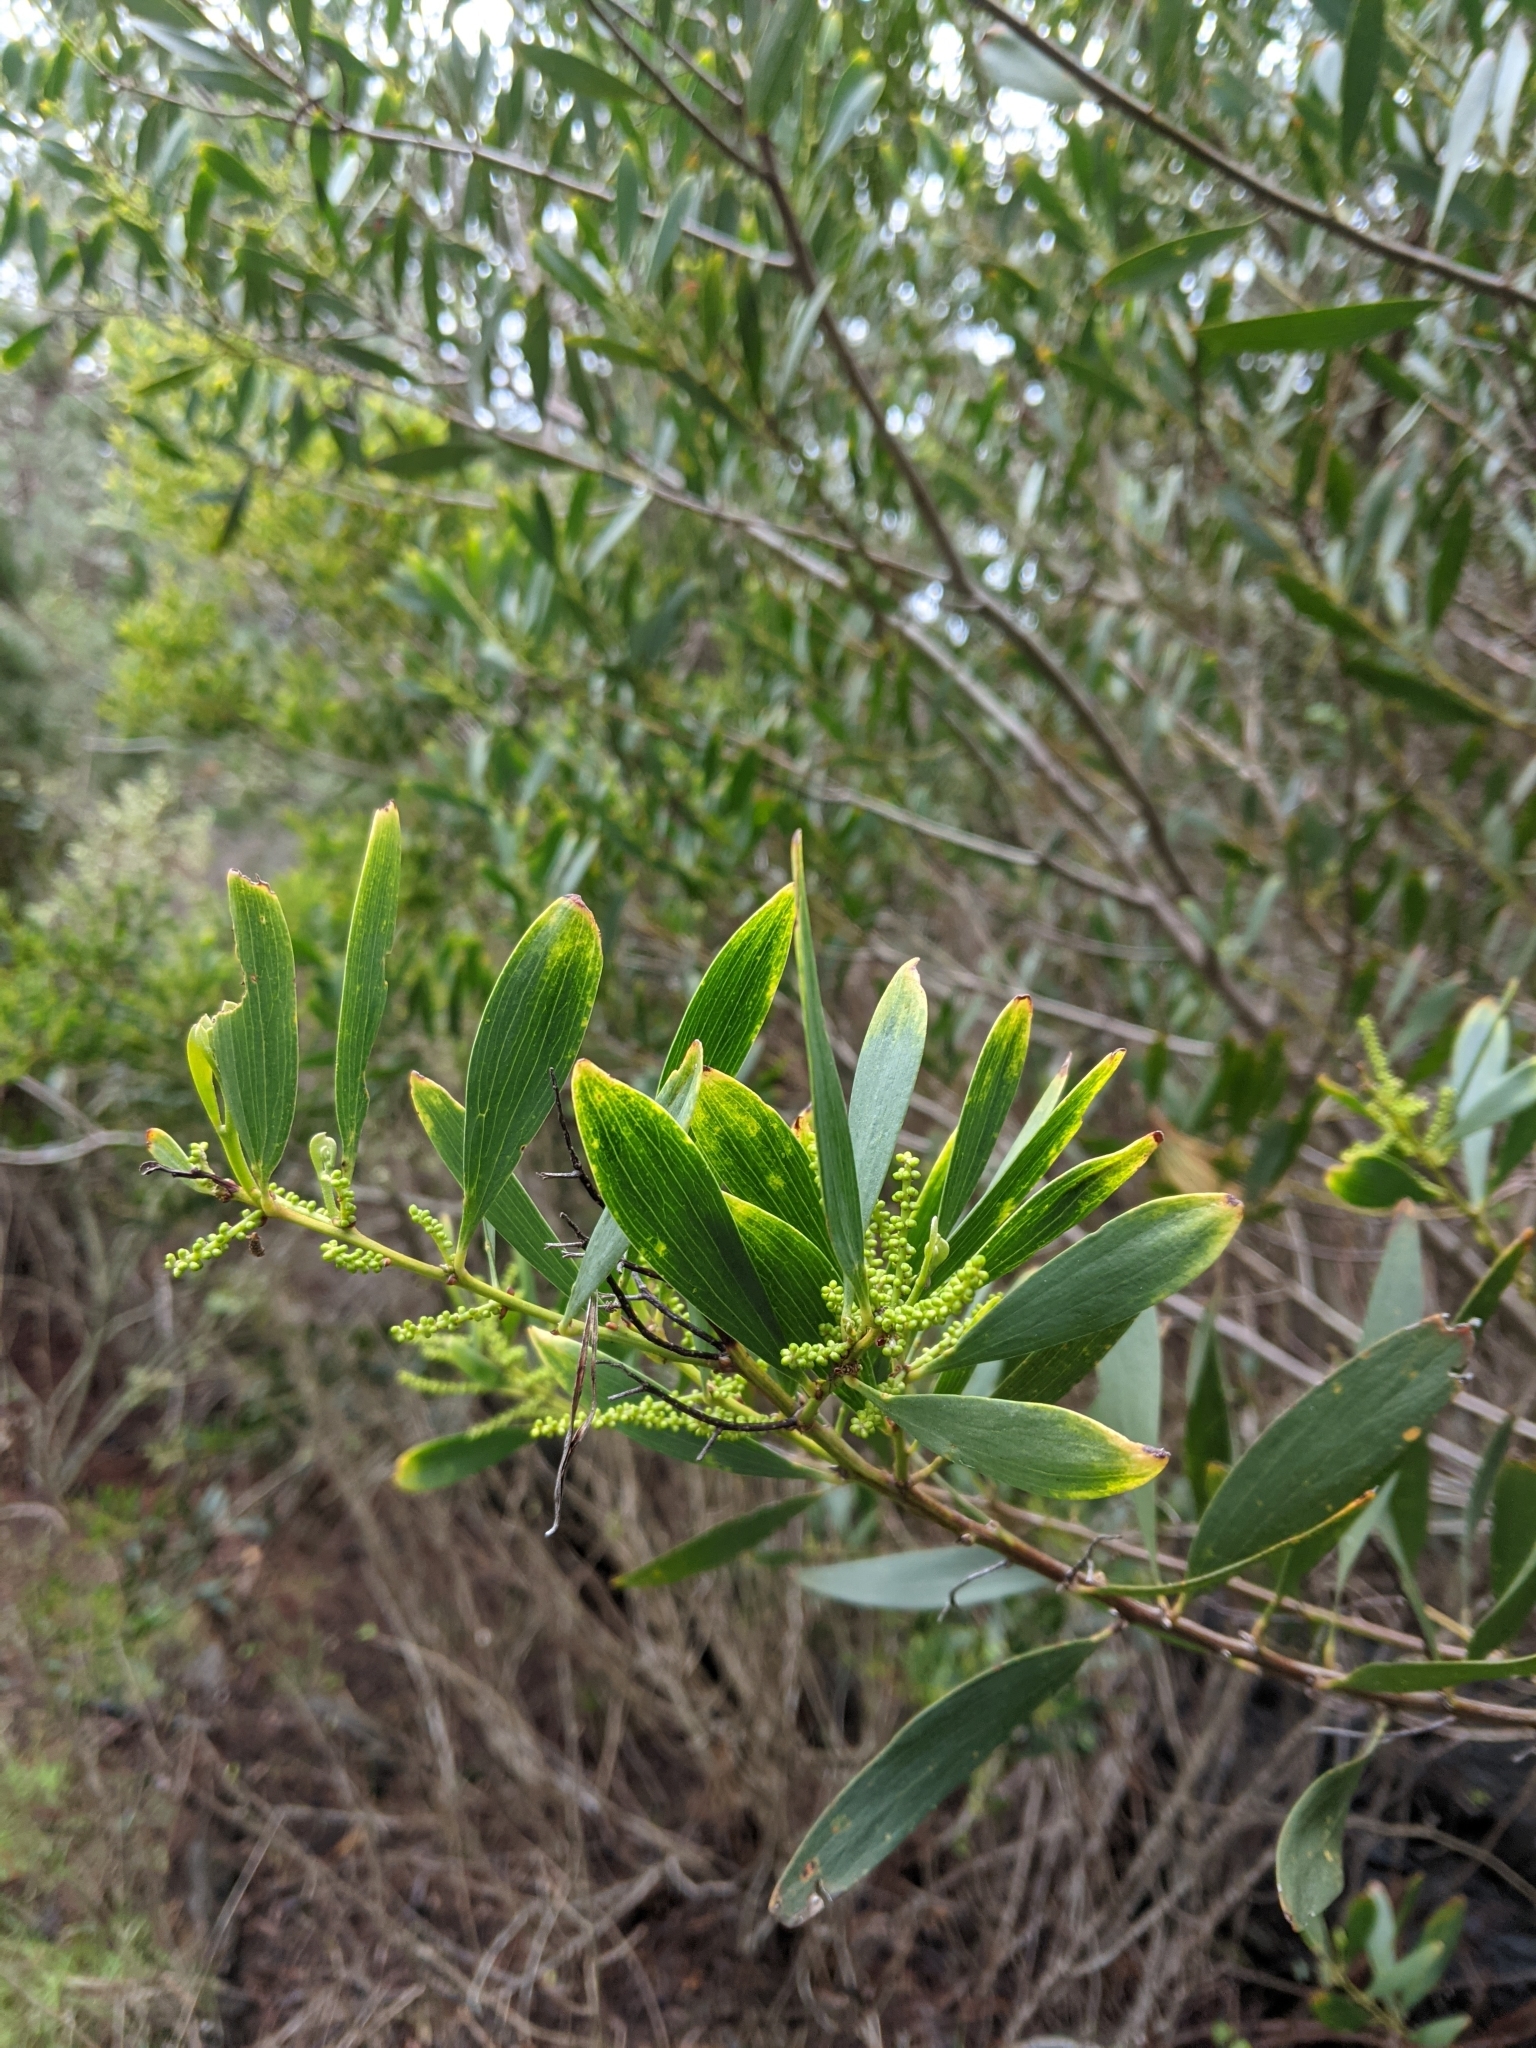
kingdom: Plantae
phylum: Tracheophyta
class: Magnoliopsida
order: Fabales
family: Fabaceae
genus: Acacia
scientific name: Acacia longifolia
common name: Sydney golden wattle
